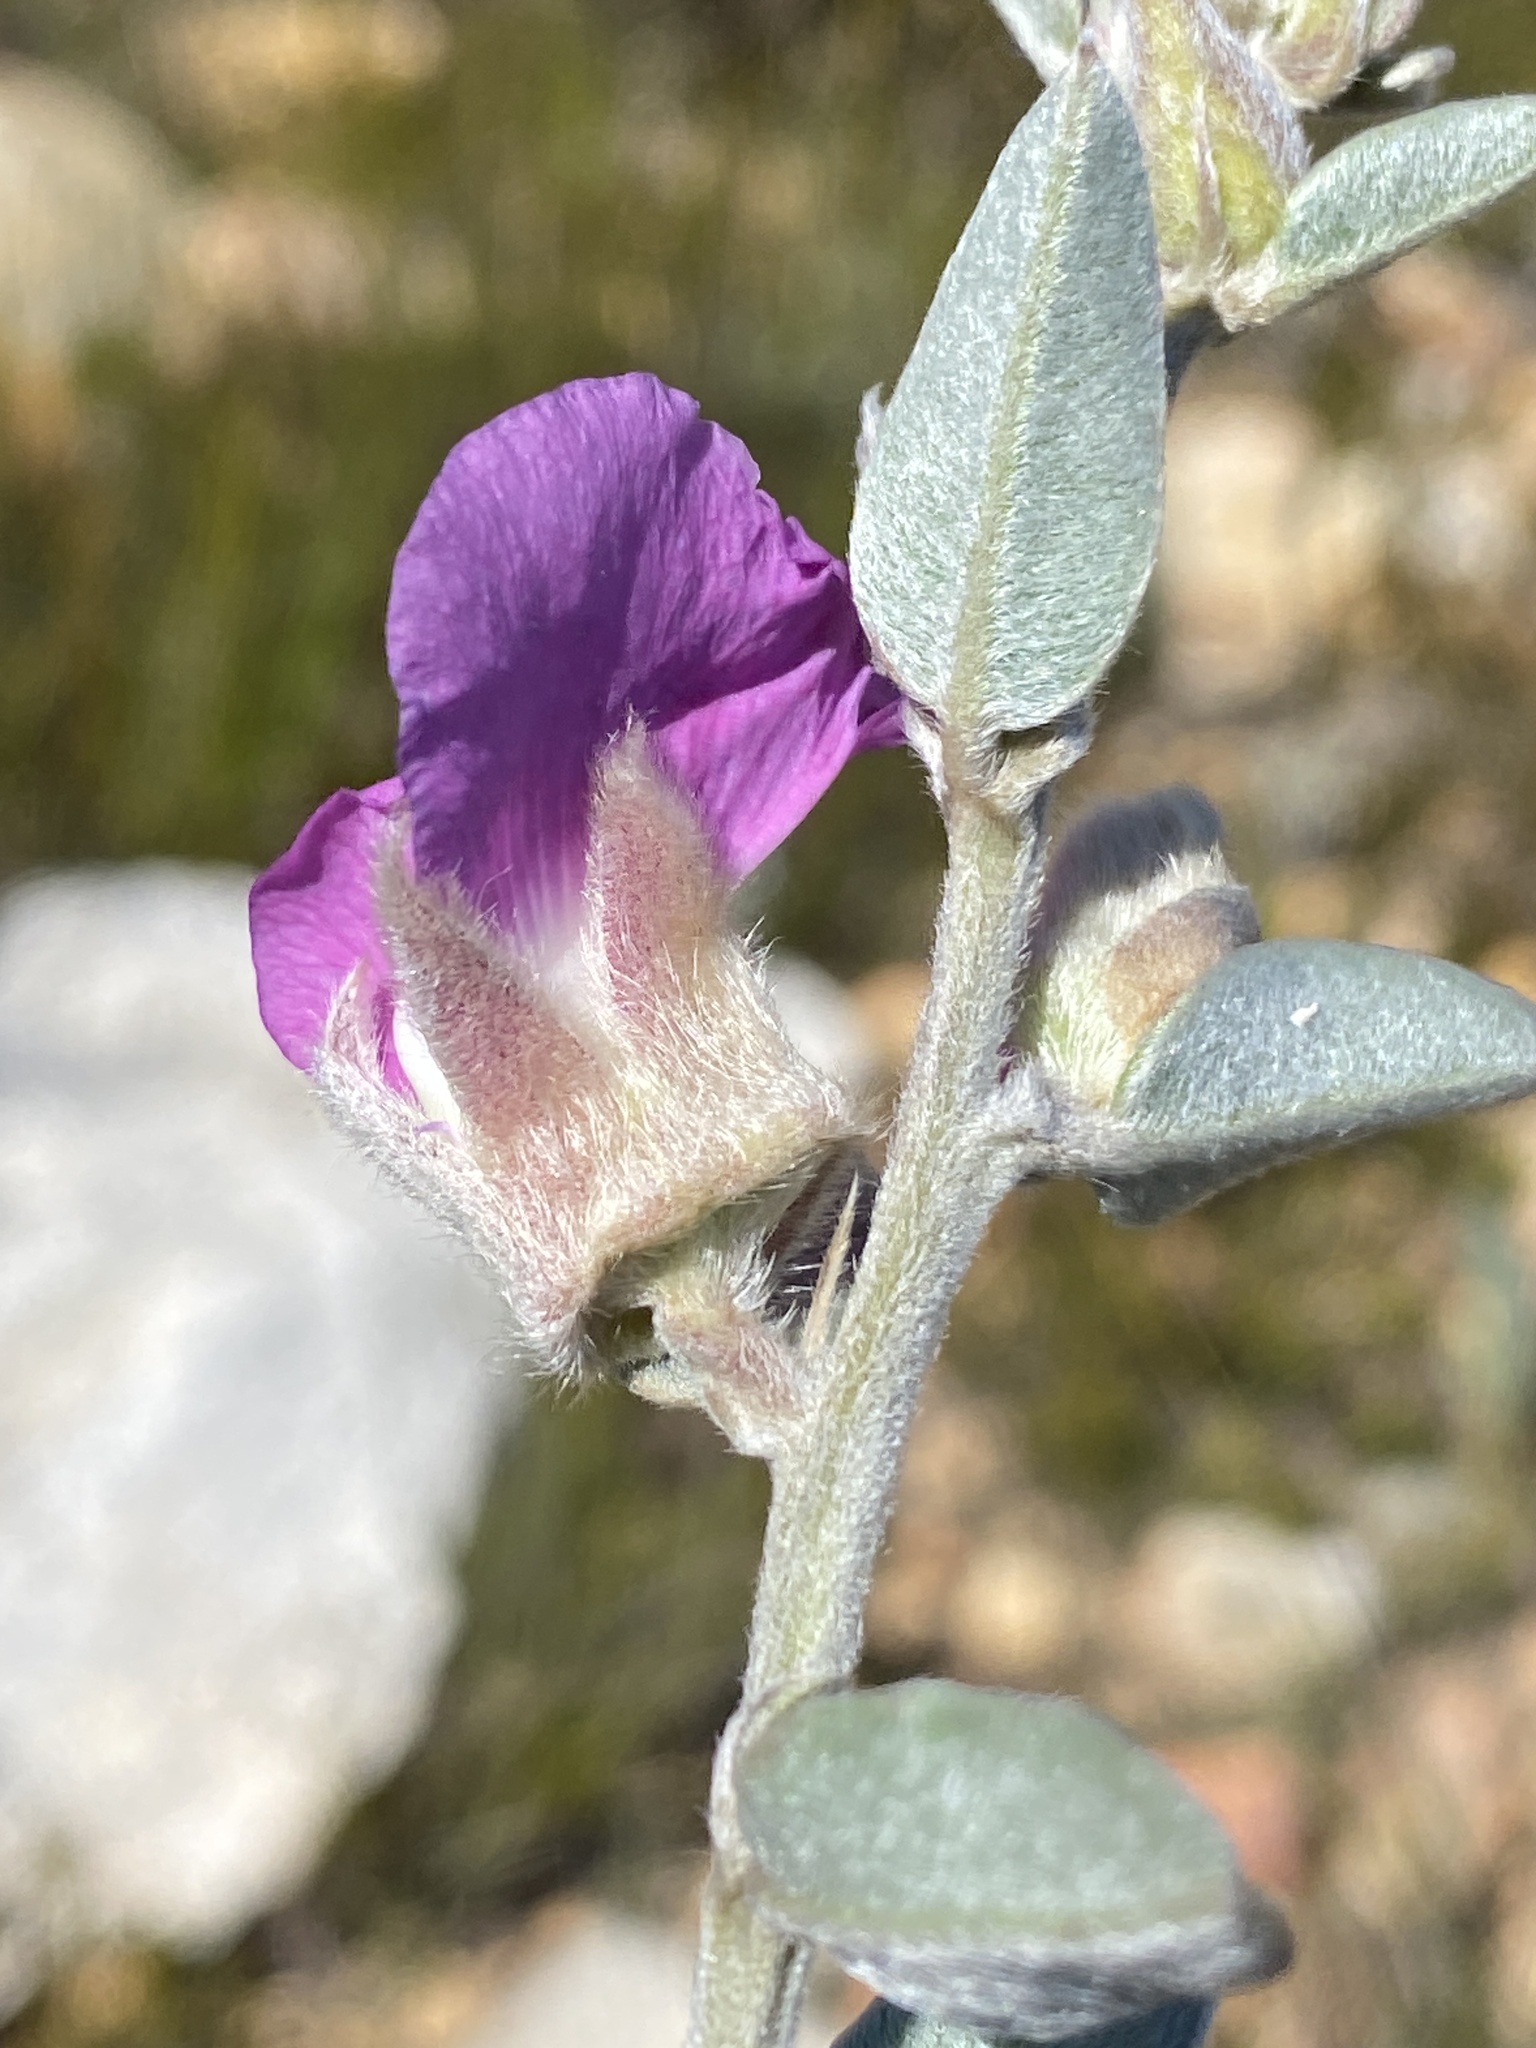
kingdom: Plantae
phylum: Tracheophyta
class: Magnoliopsida
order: Fabales
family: Fabaceae
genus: Podalyria
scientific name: Podalyria burchellii
